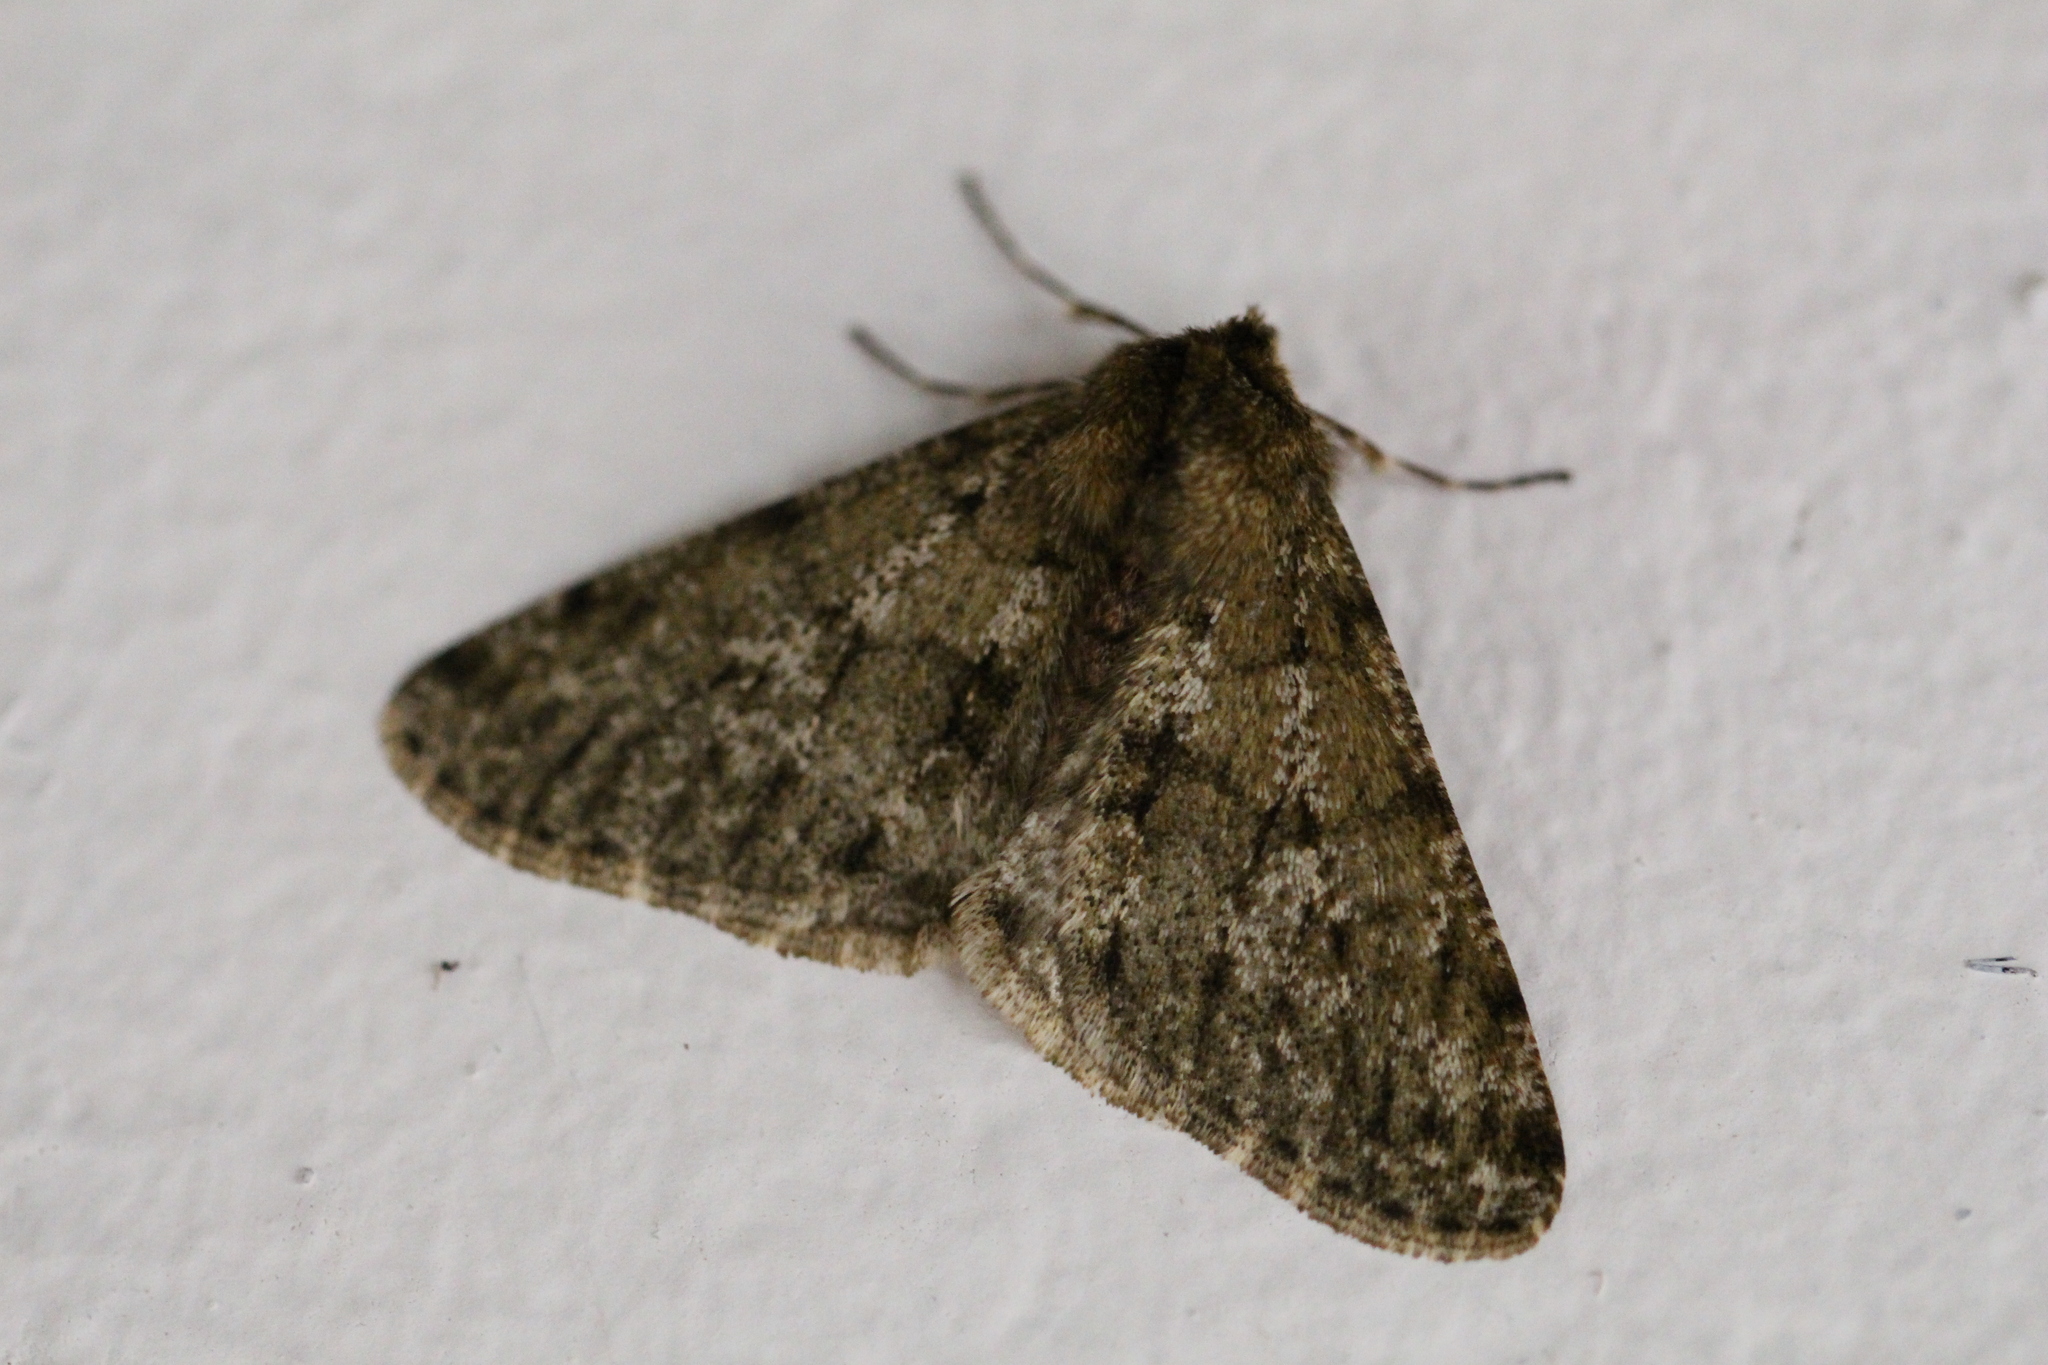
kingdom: Animalia
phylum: Arthropoda
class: Insecta
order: Lepidoptera
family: Geometridae
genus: Phigalia
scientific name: Phigalia pilosaria
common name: Pale brindled beauty
